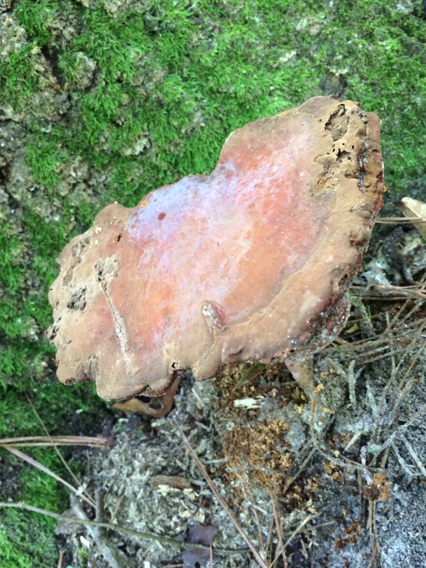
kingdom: Fungi
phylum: Basidiomycota
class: Agaricomycetes
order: Polyporales
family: Polyporaceae
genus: Ganoderma
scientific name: Ganoderma curtisii
